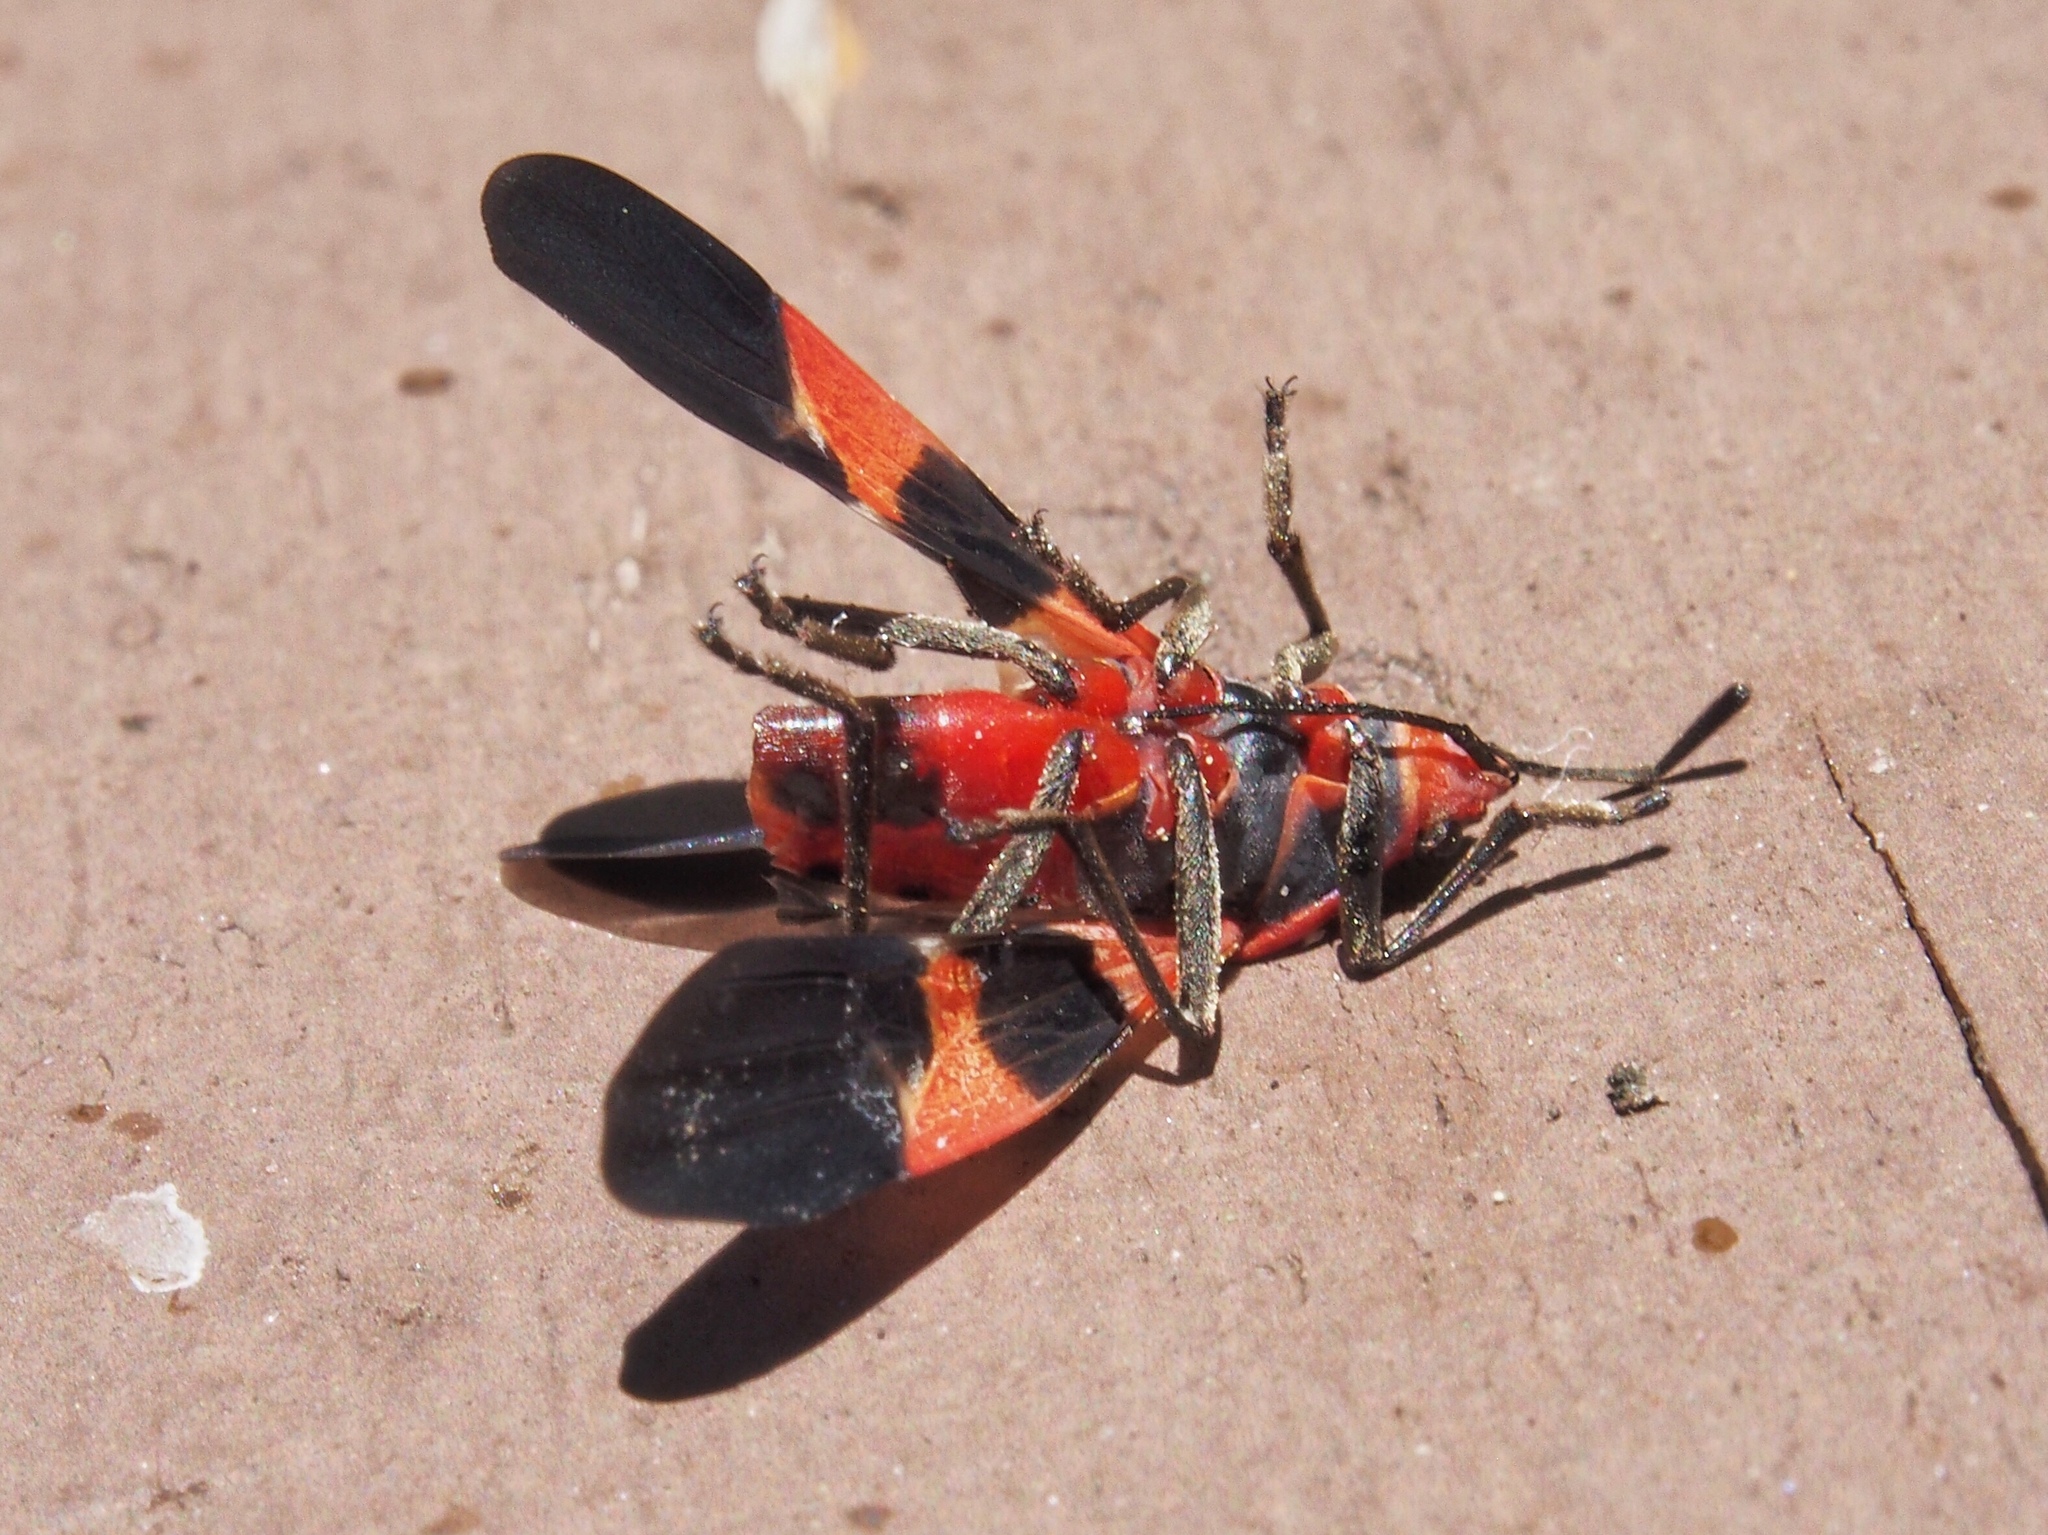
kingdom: Animalia
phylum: Arthropoda
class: Insecta
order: Hemiptera
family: Lygaeidae
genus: Oncopeltus
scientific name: Oncopeltus fasciatus
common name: Large milkweed bug
